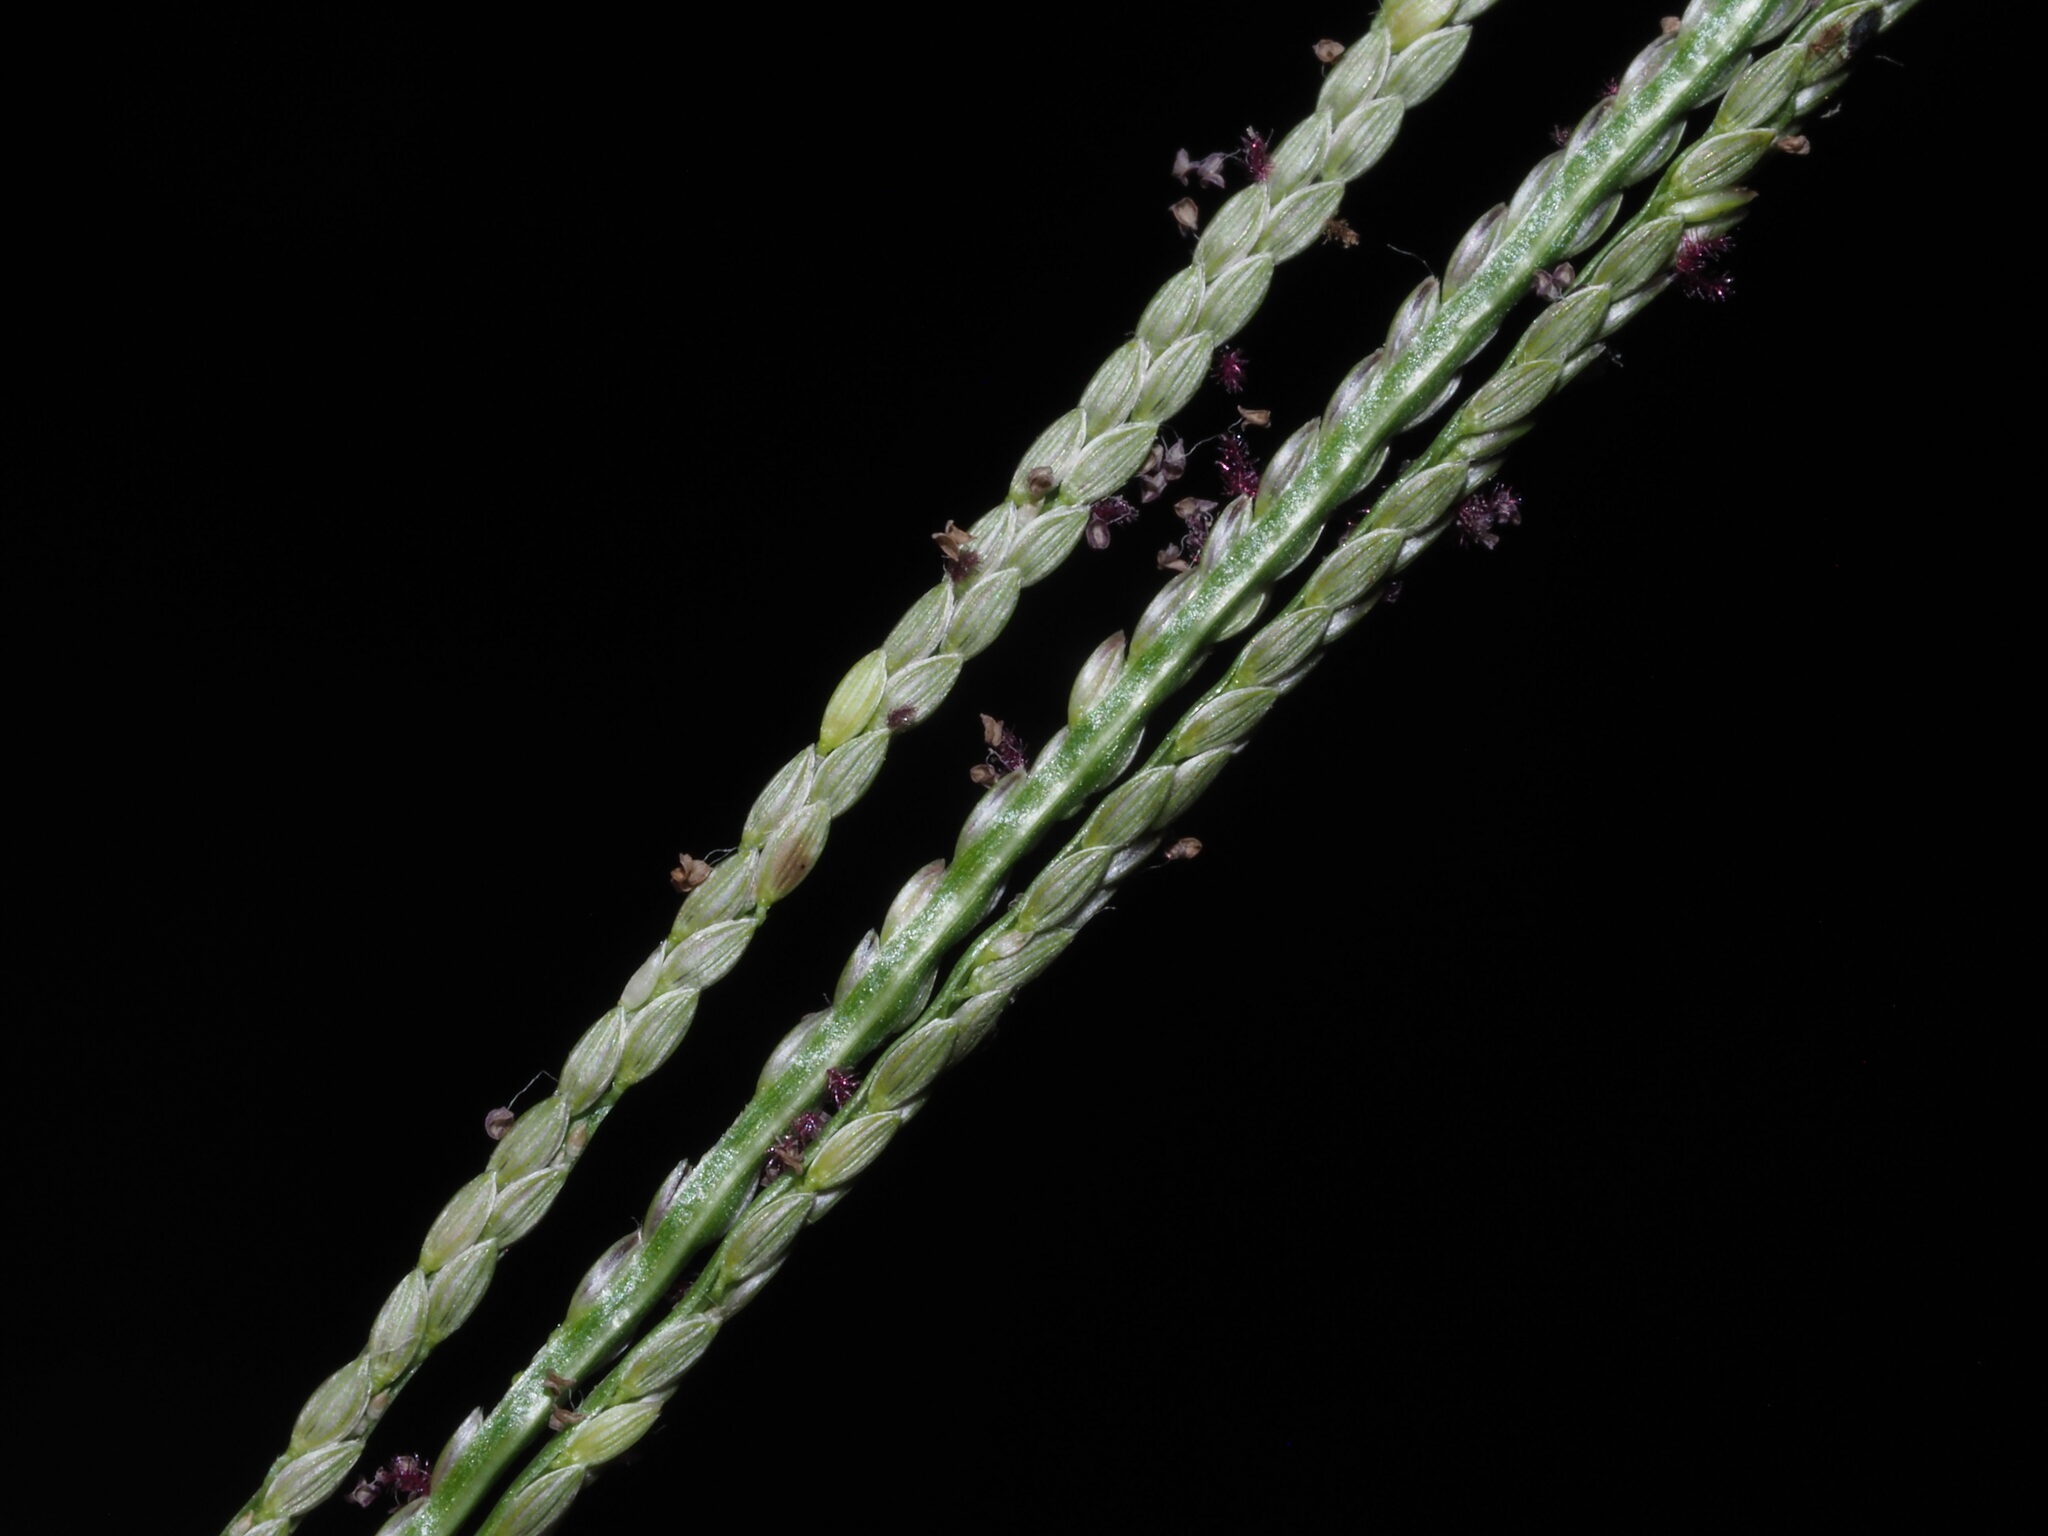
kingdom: Plantae
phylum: Tracheophyta
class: Liliopsida
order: Poales
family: Poaceae
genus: Digitaria
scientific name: Digitaria violascens
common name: Violet crabgrass
